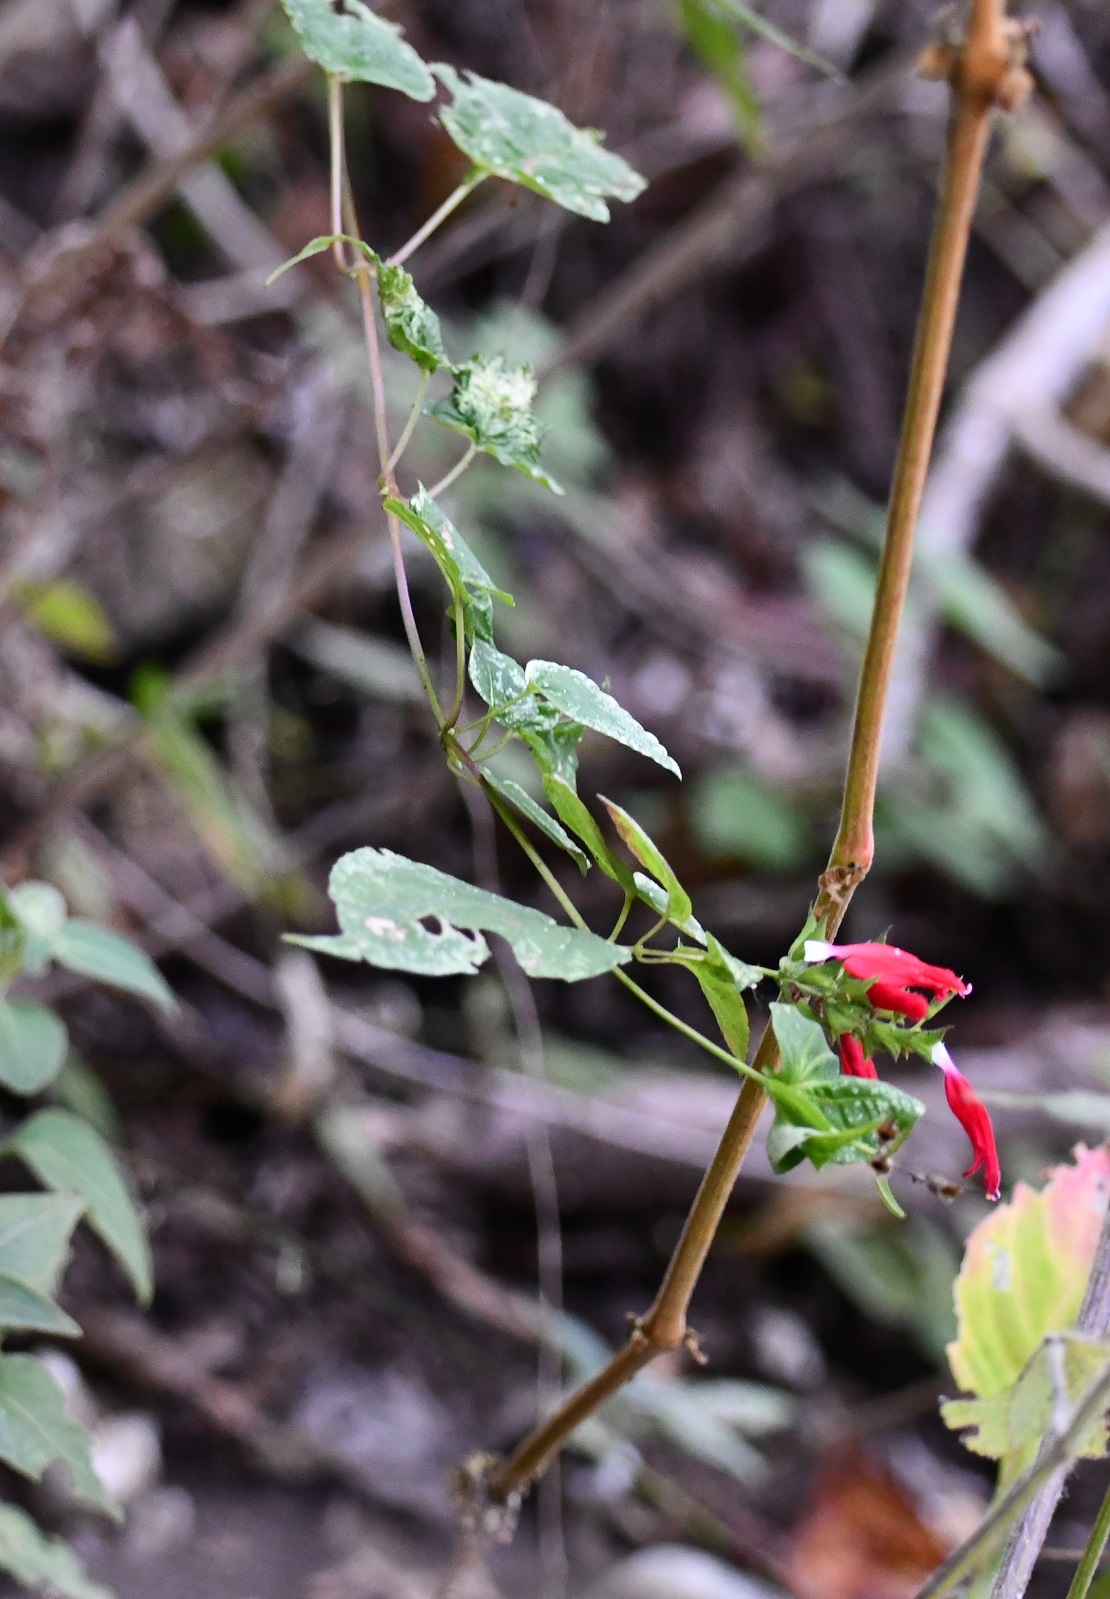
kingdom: Plantae
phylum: Tracheophyta
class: Magnoliopsida
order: Lamiales
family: Lamiaceae
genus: Salvia
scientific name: Salvia holwayi
